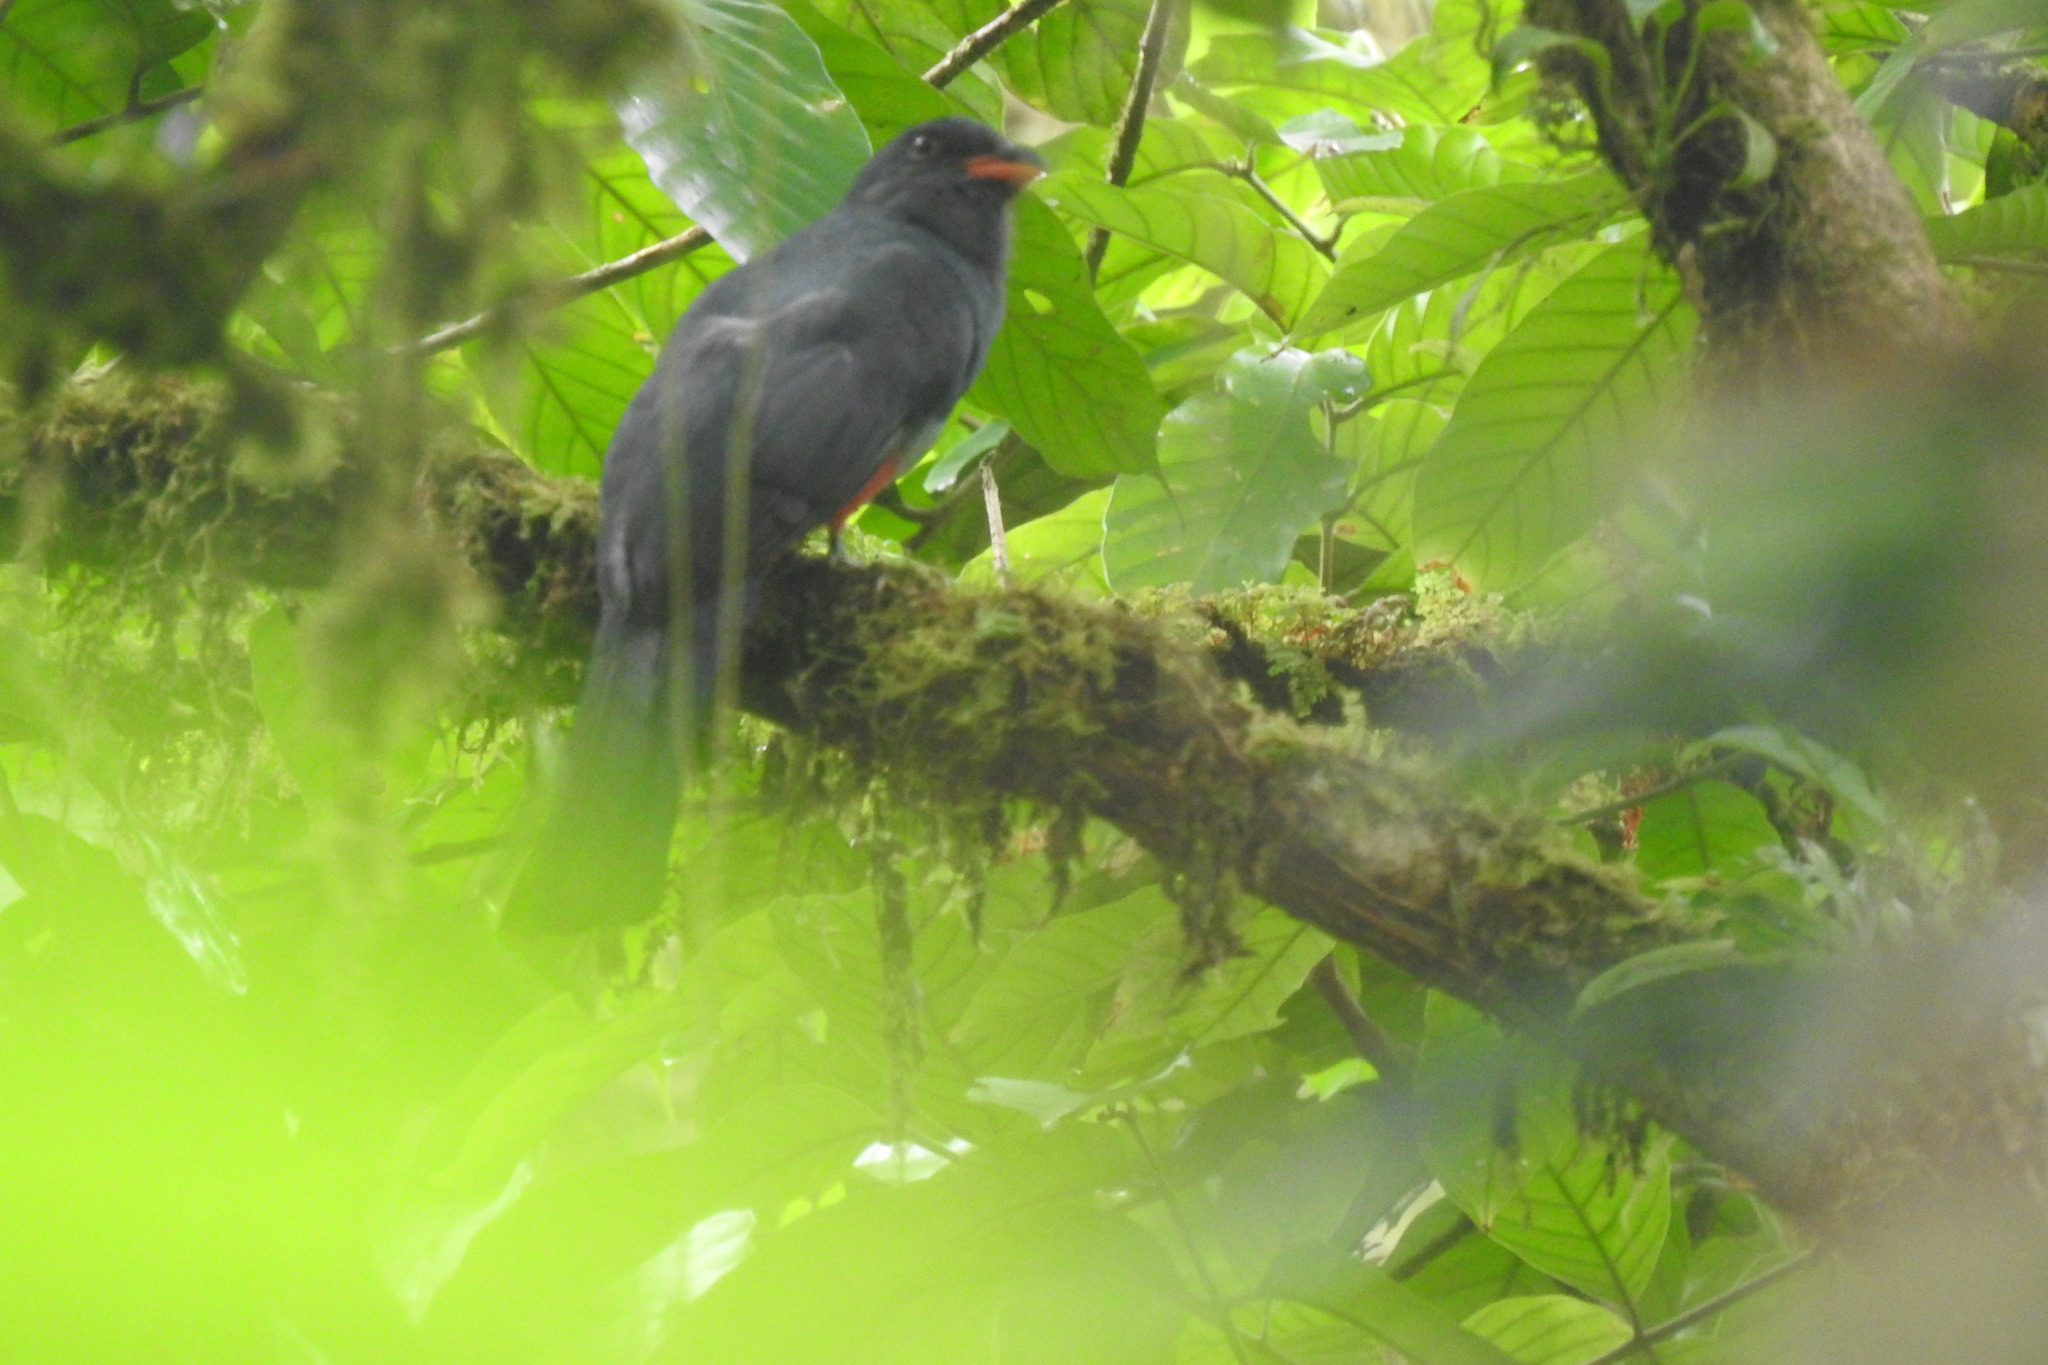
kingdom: Animalia
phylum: Chordata
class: Aves
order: Trogoniformes
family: Trogonidae
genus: Trogon
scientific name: Trogon massena
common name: Slaty-tailed trogon
